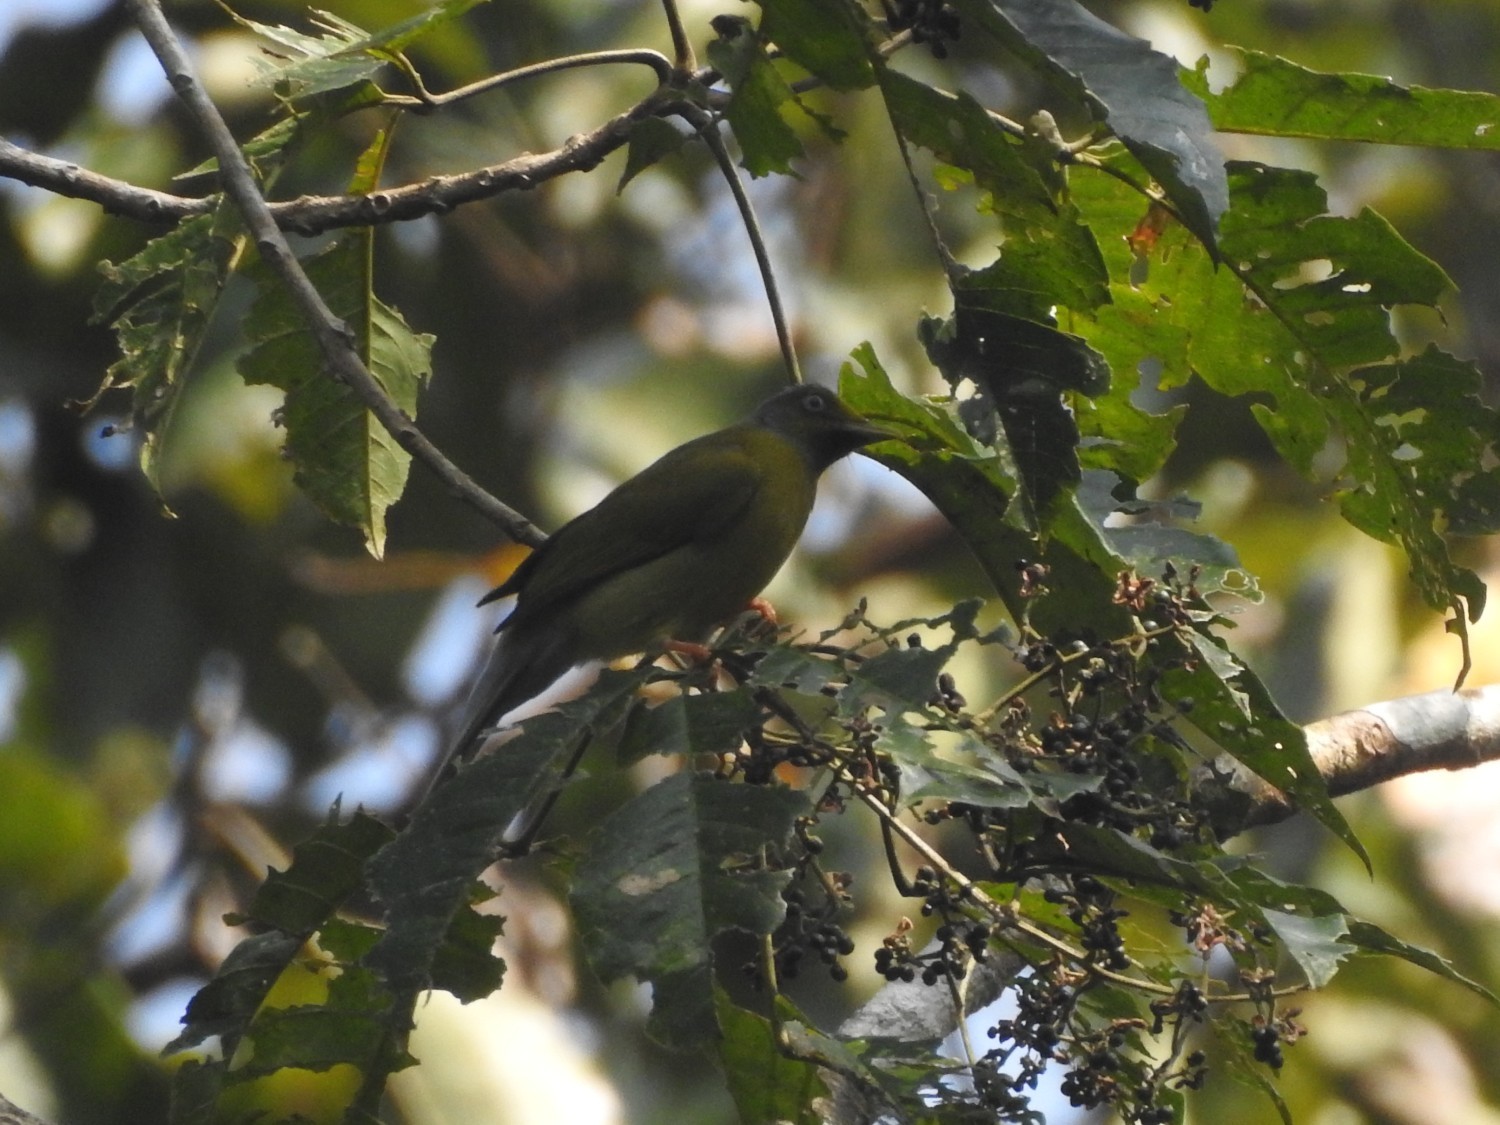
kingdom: Animalia
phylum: Chordata
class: Aves
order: Passeriformes
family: Pycnonotidae
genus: Microtarsus
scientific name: Microtarsus
